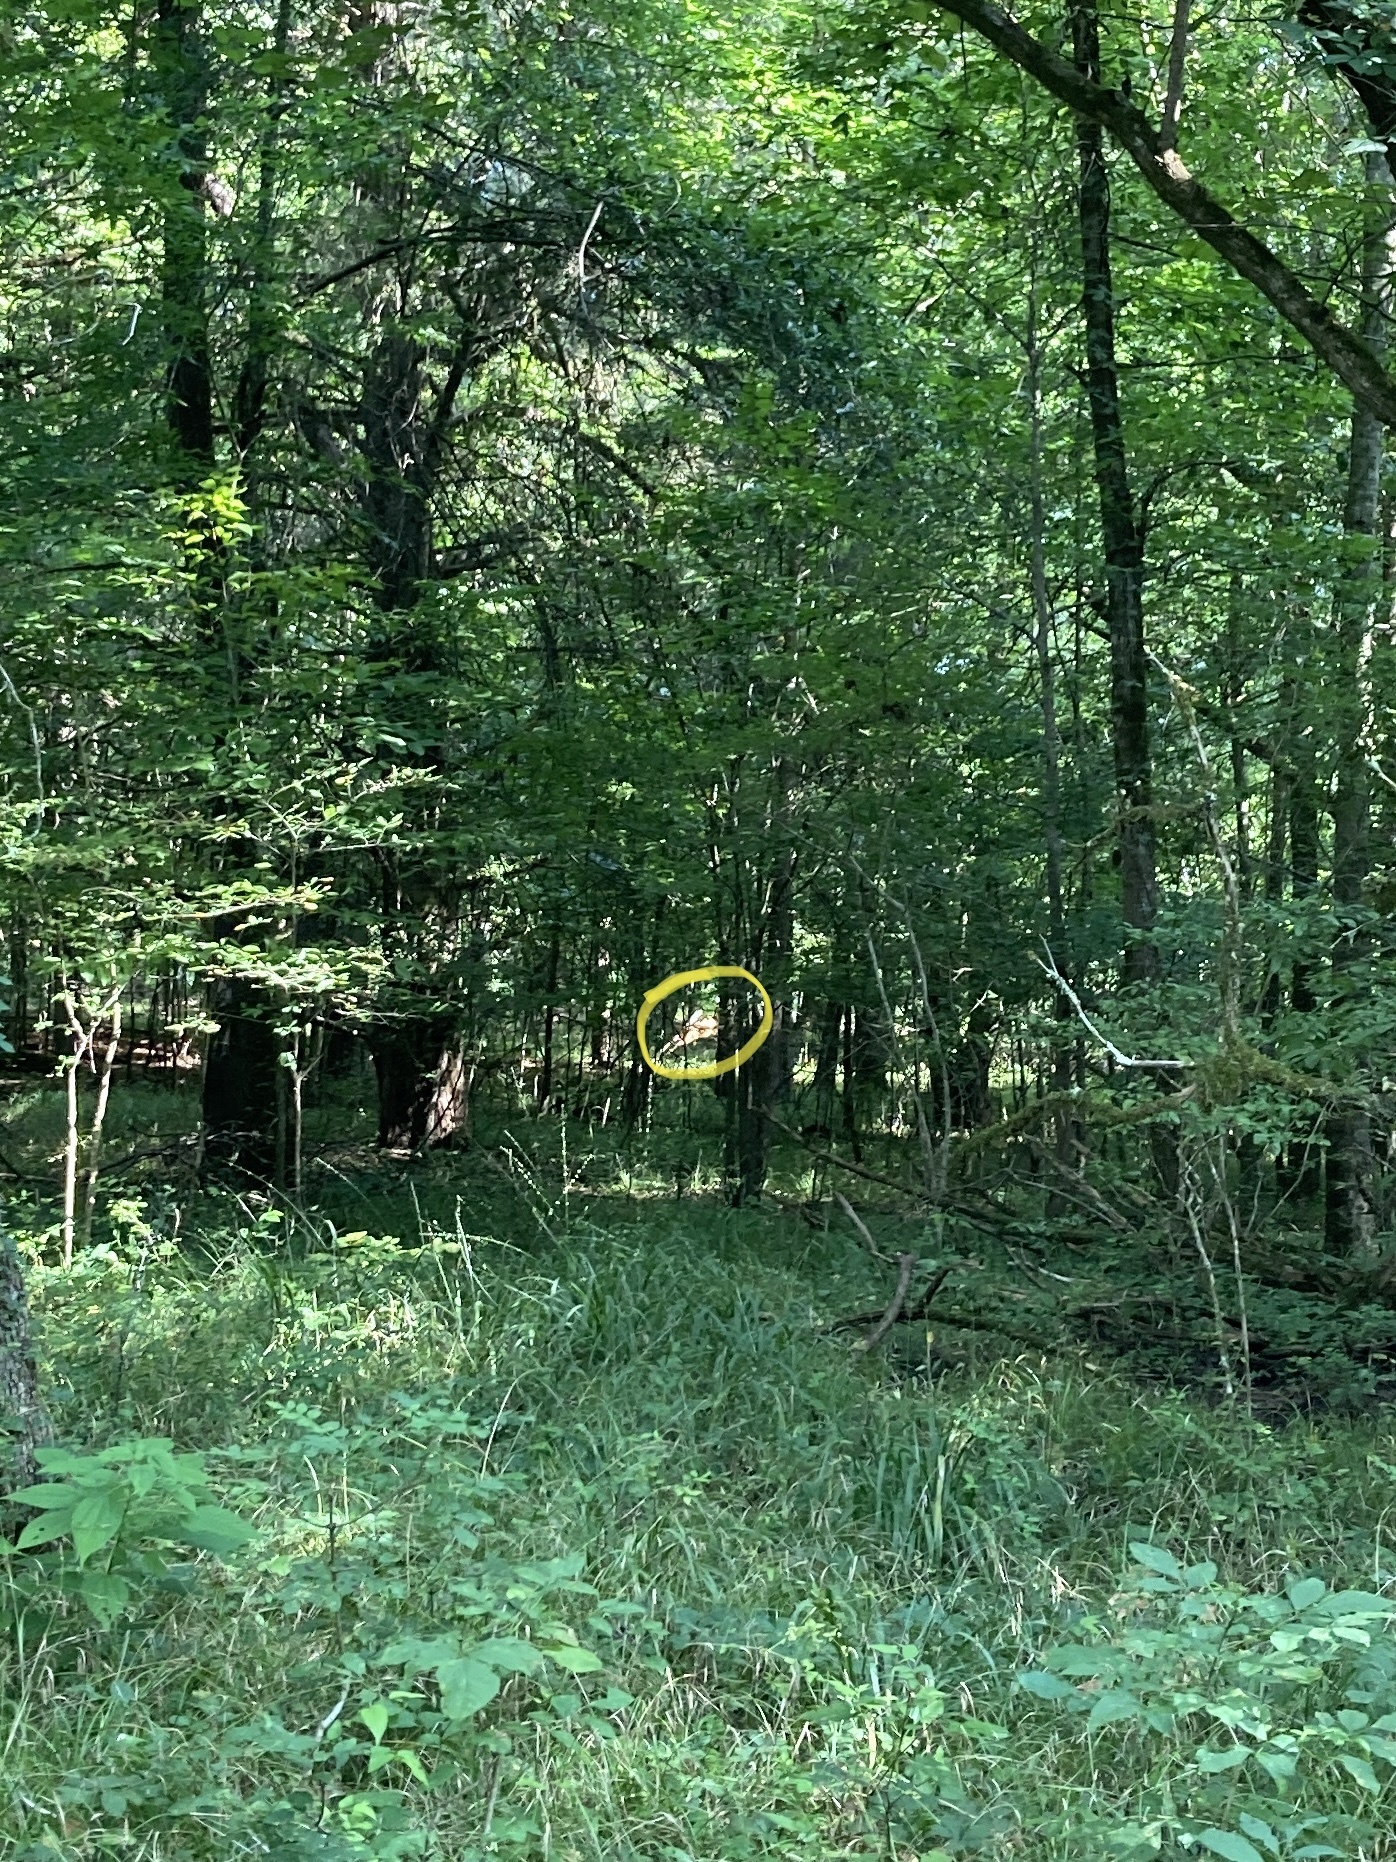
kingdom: Animalia
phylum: Chordata
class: Mammalia
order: Artiodactyla
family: Cervidae
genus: Odocoileus
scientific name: Odocoileus virginianus
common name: White-tailed deer
